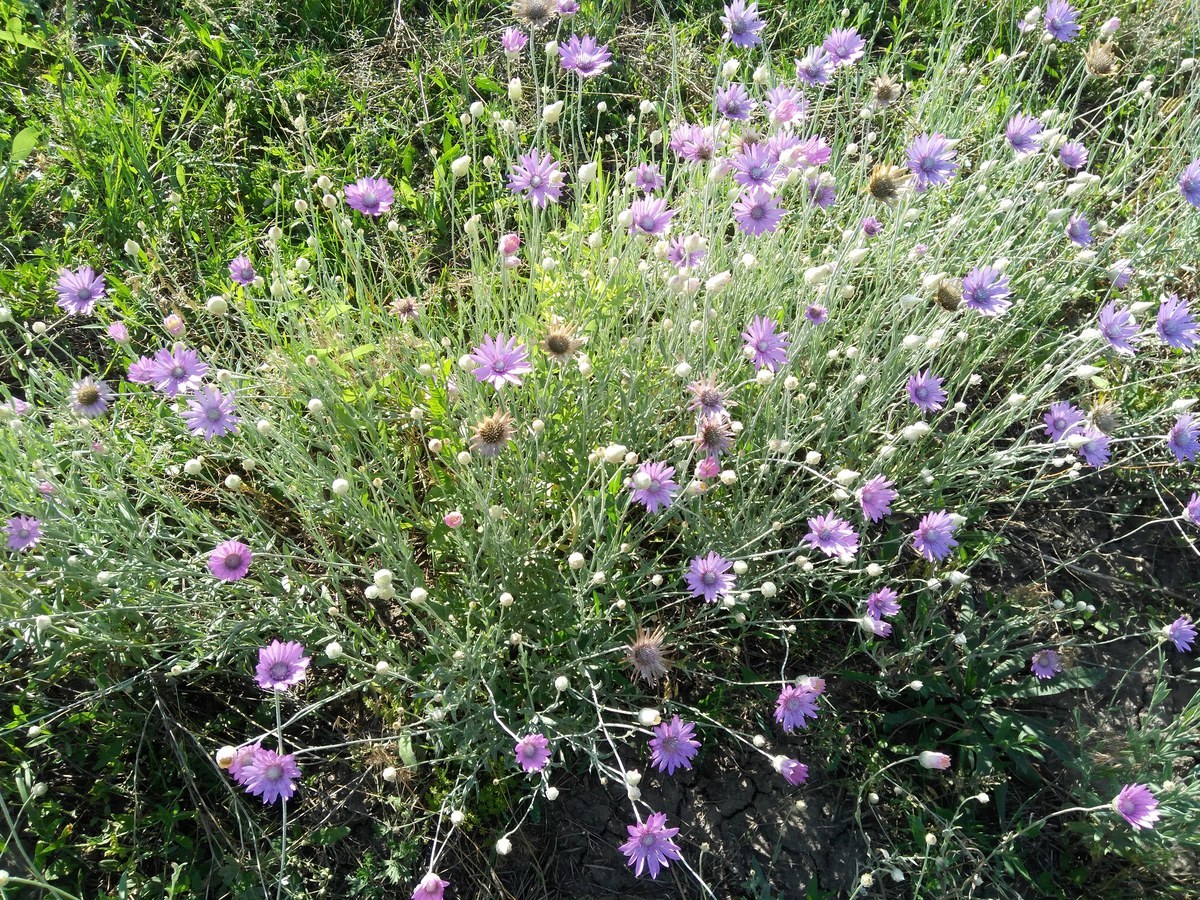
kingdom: Plantae
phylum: Tracheophyta
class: Magnoliopsida
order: Asterales
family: Asteraceae
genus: Xeranthemum
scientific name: Xeranthemum annuum
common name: Immortelle
